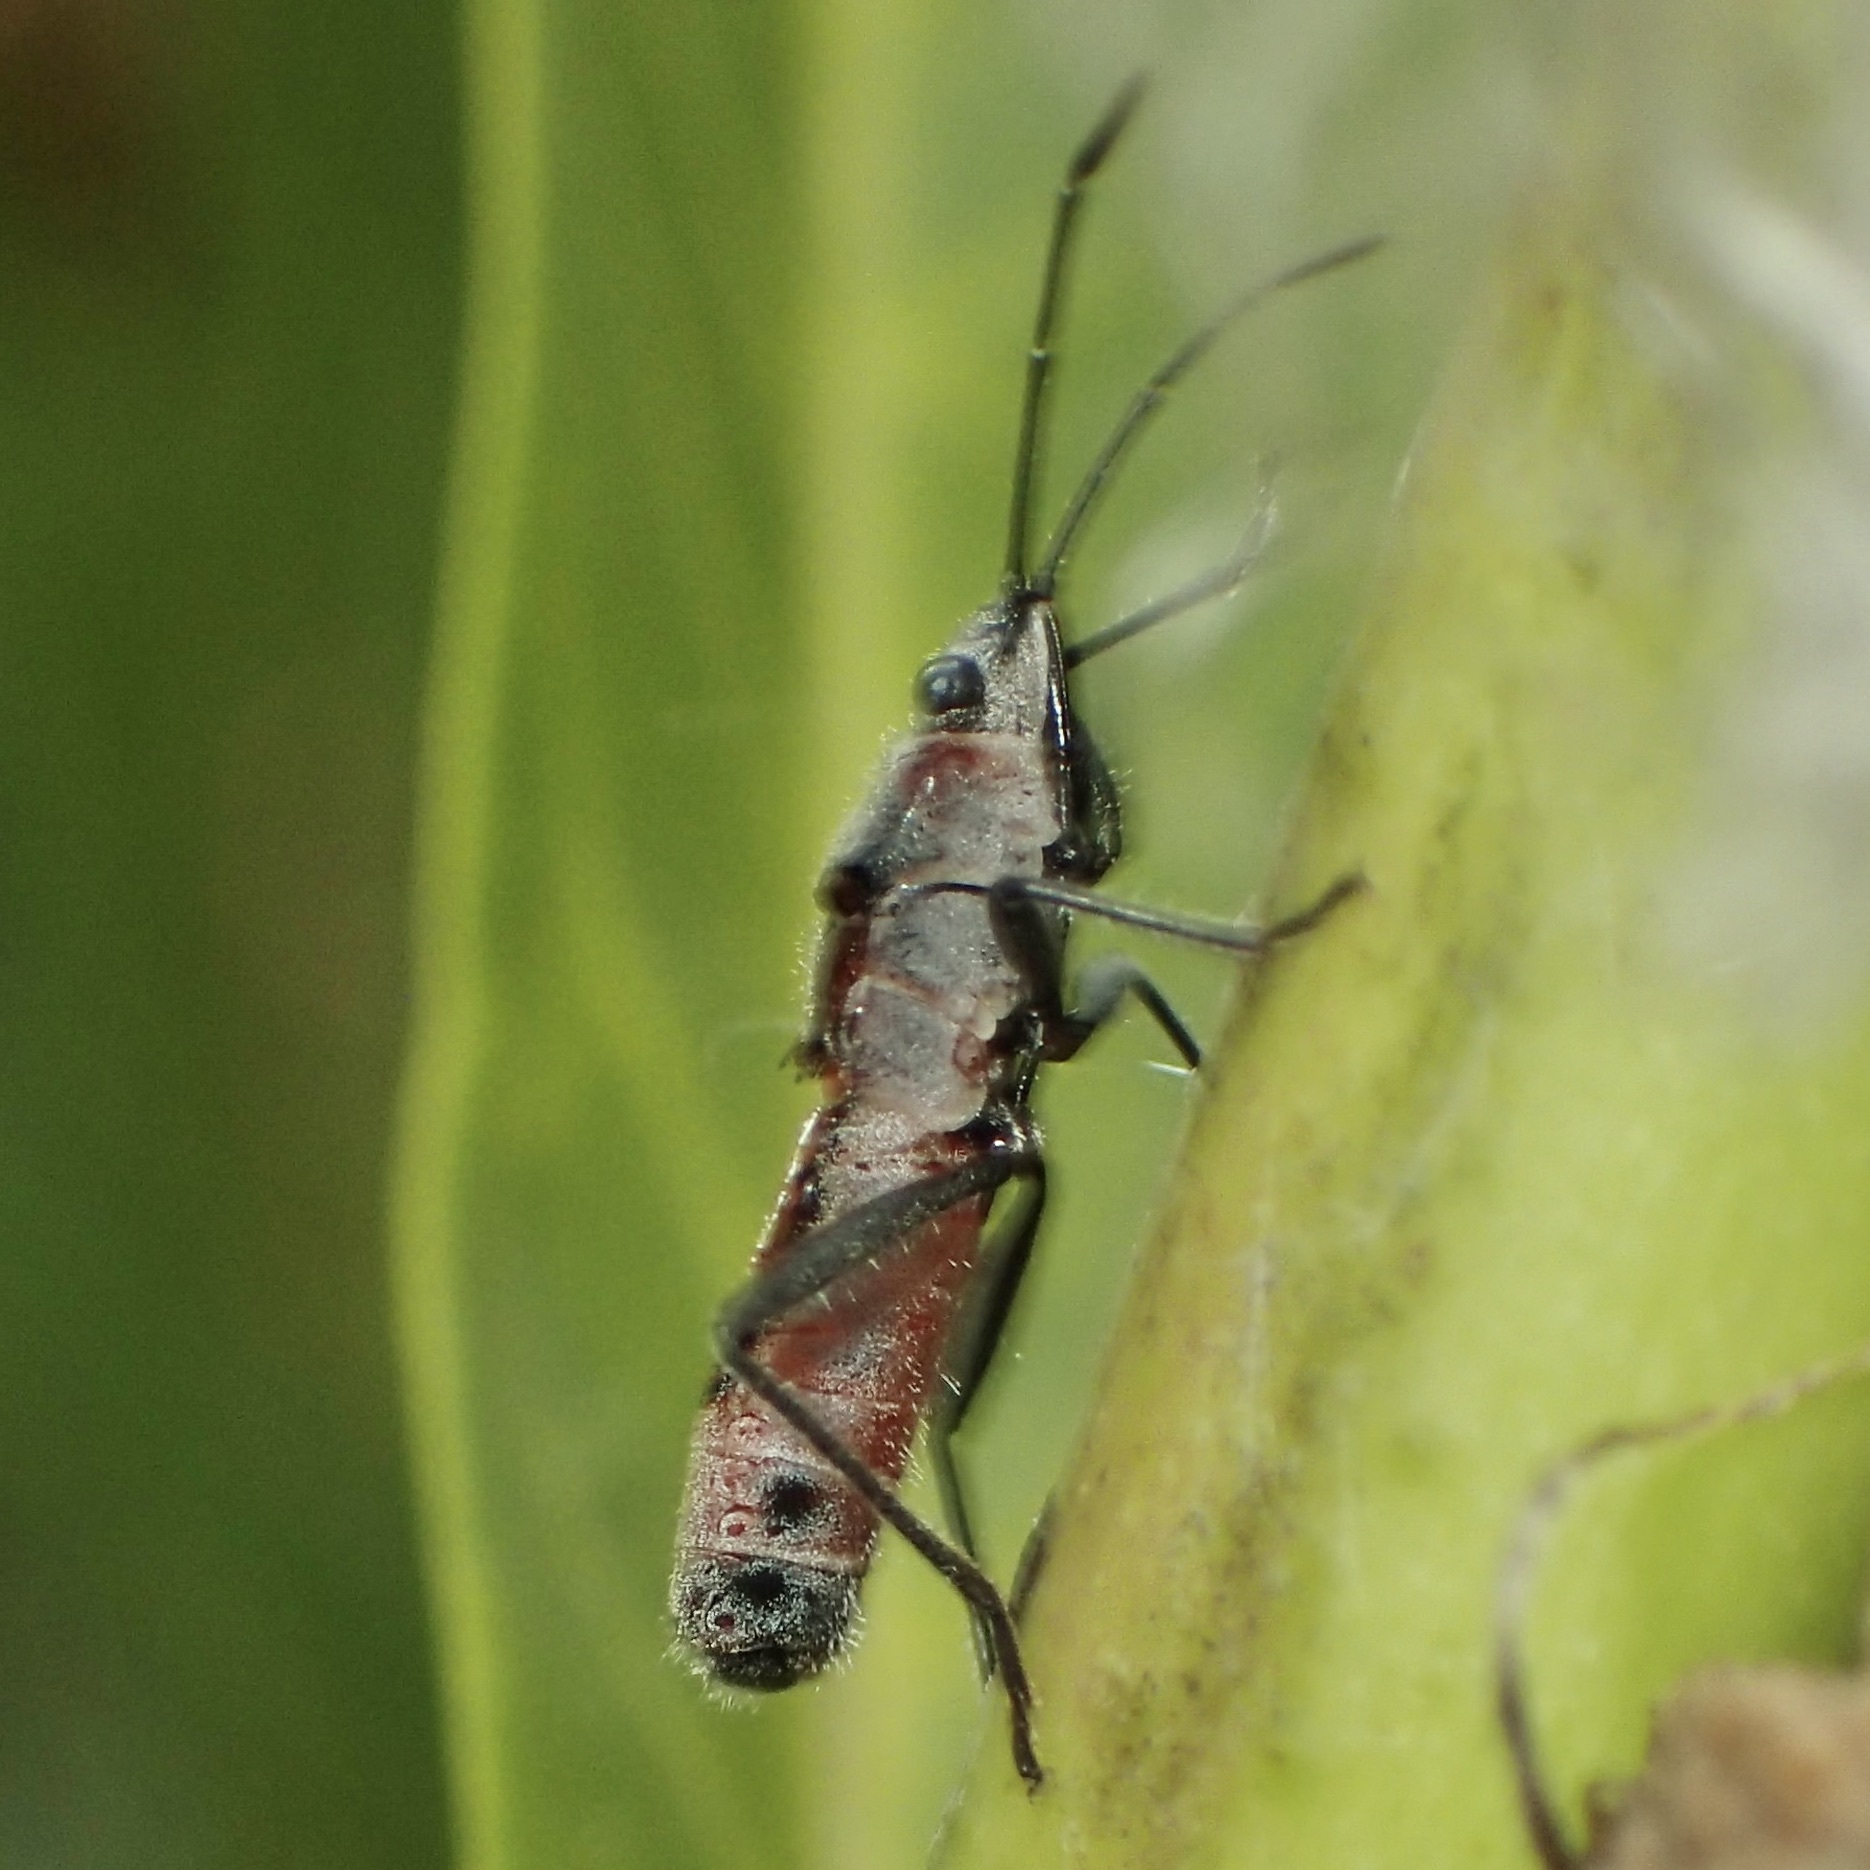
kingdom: Animalia
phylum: Arthropoda
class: Insecta
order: Hemiptera
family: Lygaeidae
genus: Arocatus
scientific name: Arocatus rusticus
